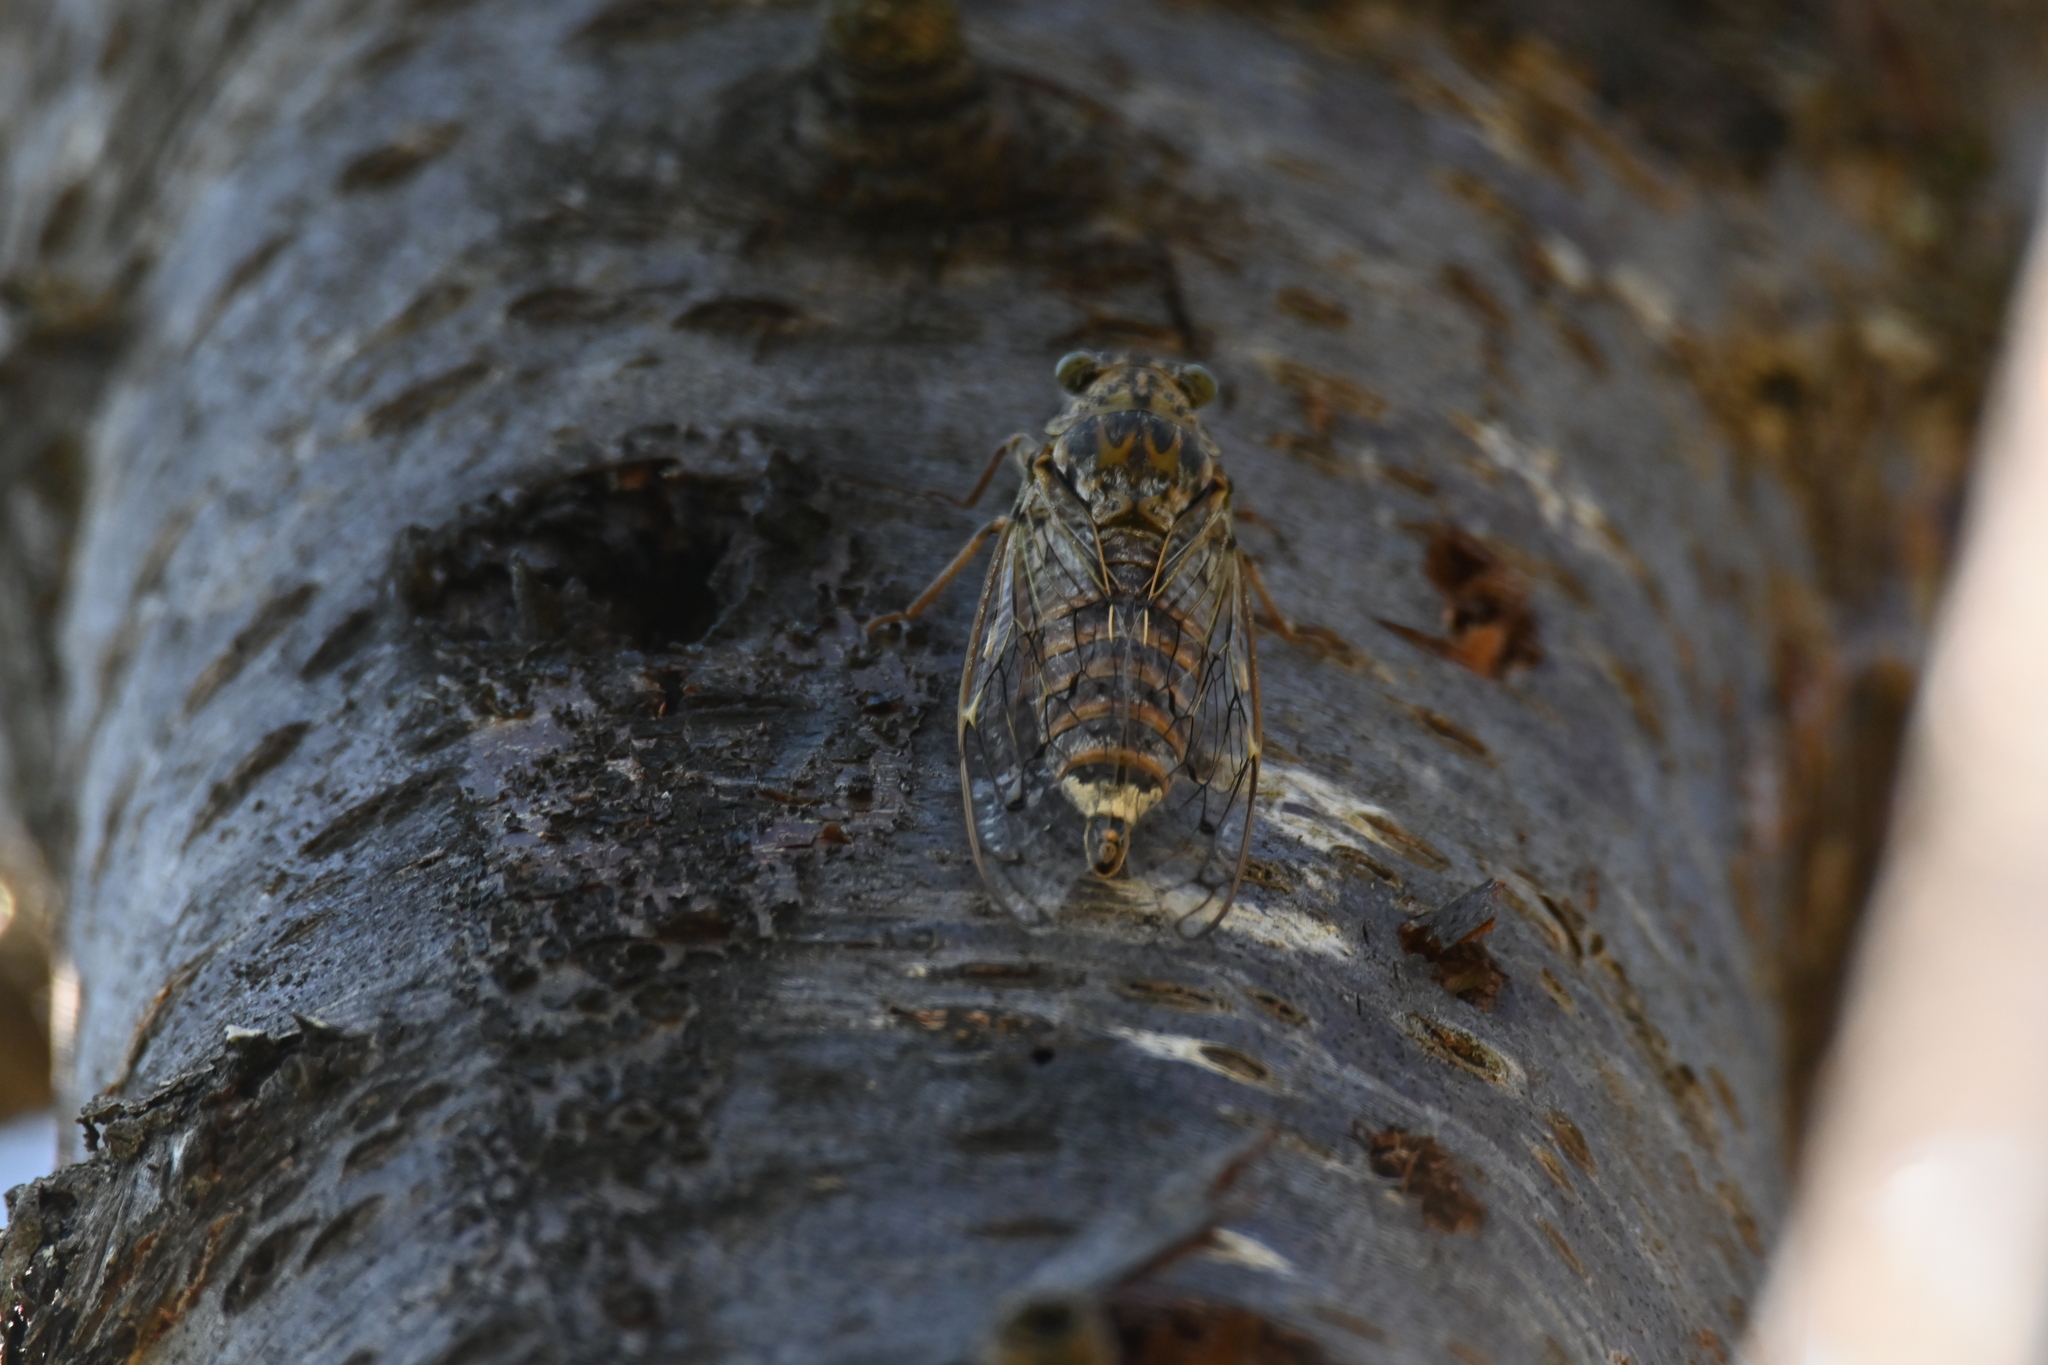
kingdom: Animalia
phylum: Arthropoda
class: Insecta
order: Hemiptera
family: Cicadidae
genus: Cicada
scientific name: Cicada orni
